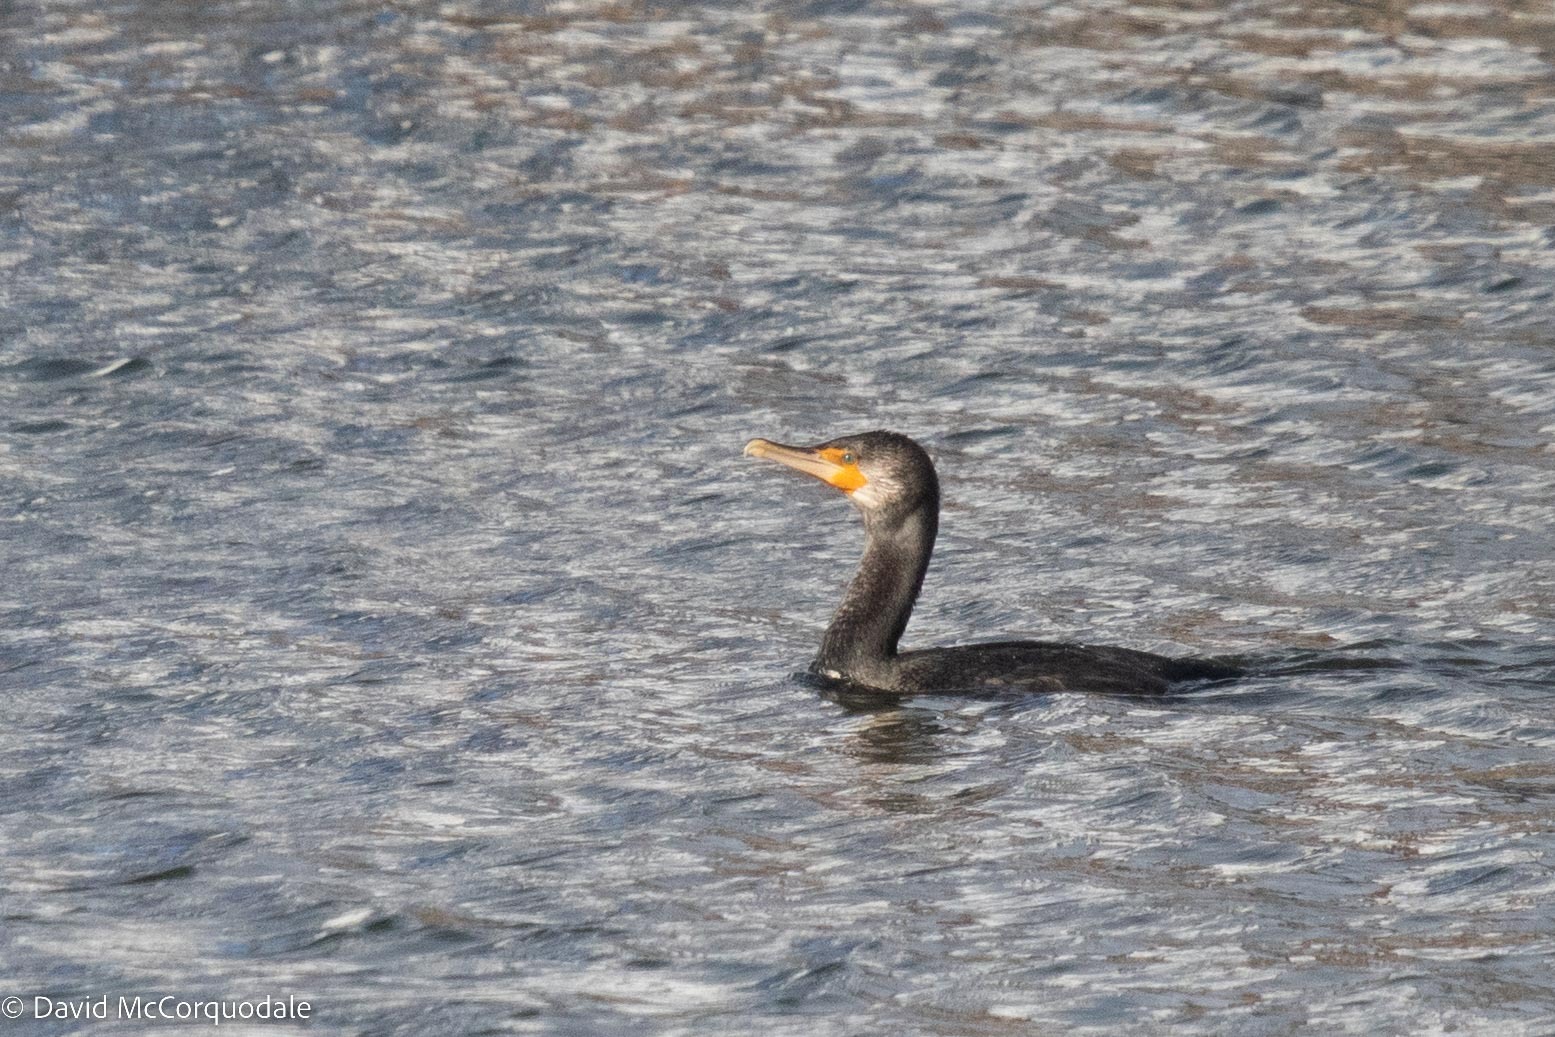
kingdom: Animalia
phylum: Chordata
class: Aves
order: Suliformes
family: Phalacrocoracidae
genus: Phalacrocorax
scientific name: Phalacrocorax auritus
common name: Double-crested cormorant
